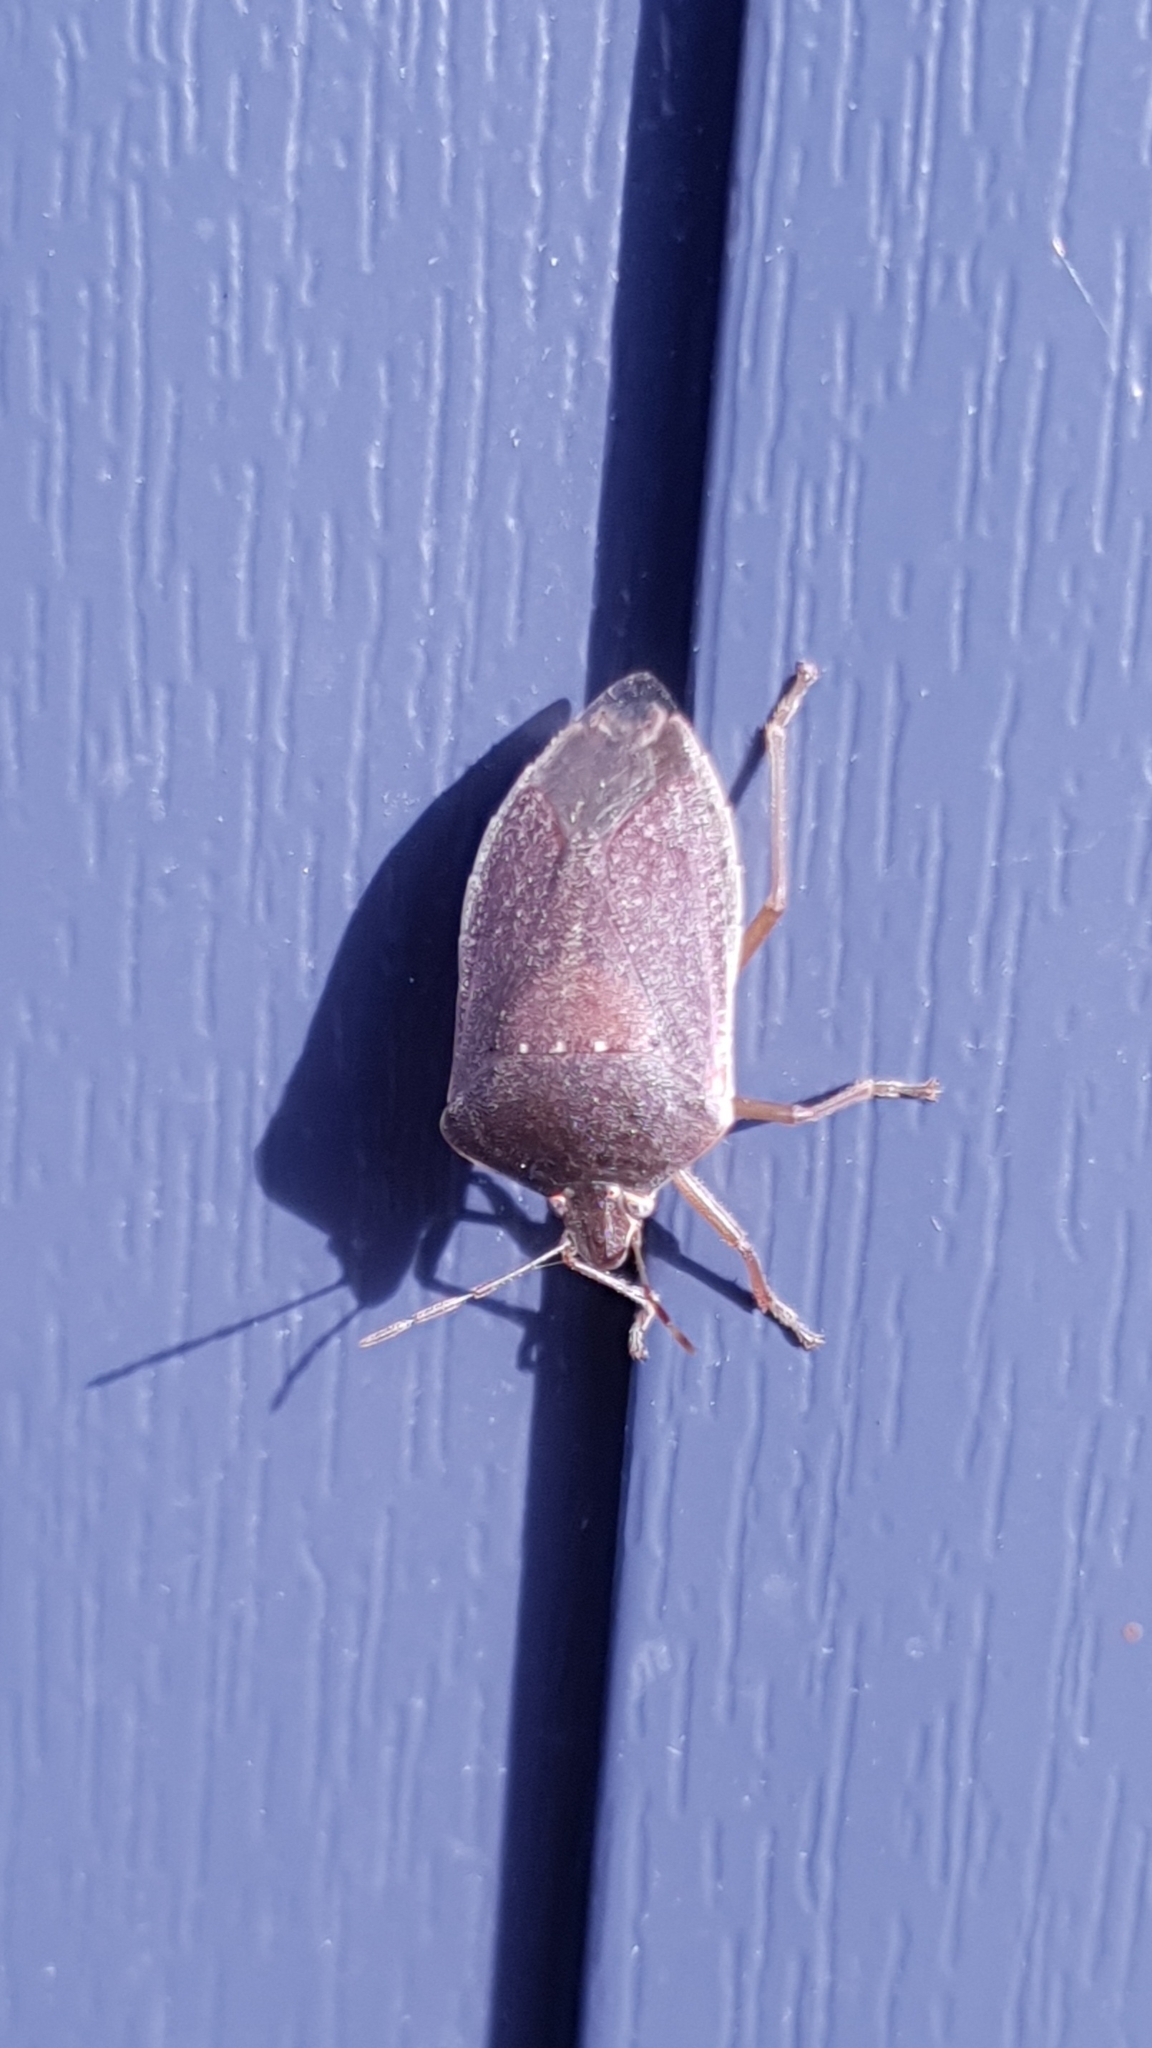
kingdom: Animalia
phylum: Arthropoda
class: Insecta
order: Hemiptera
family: Pentatomidae
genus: Nezara
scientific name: Nezara viridula
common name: Southern green stink bug
